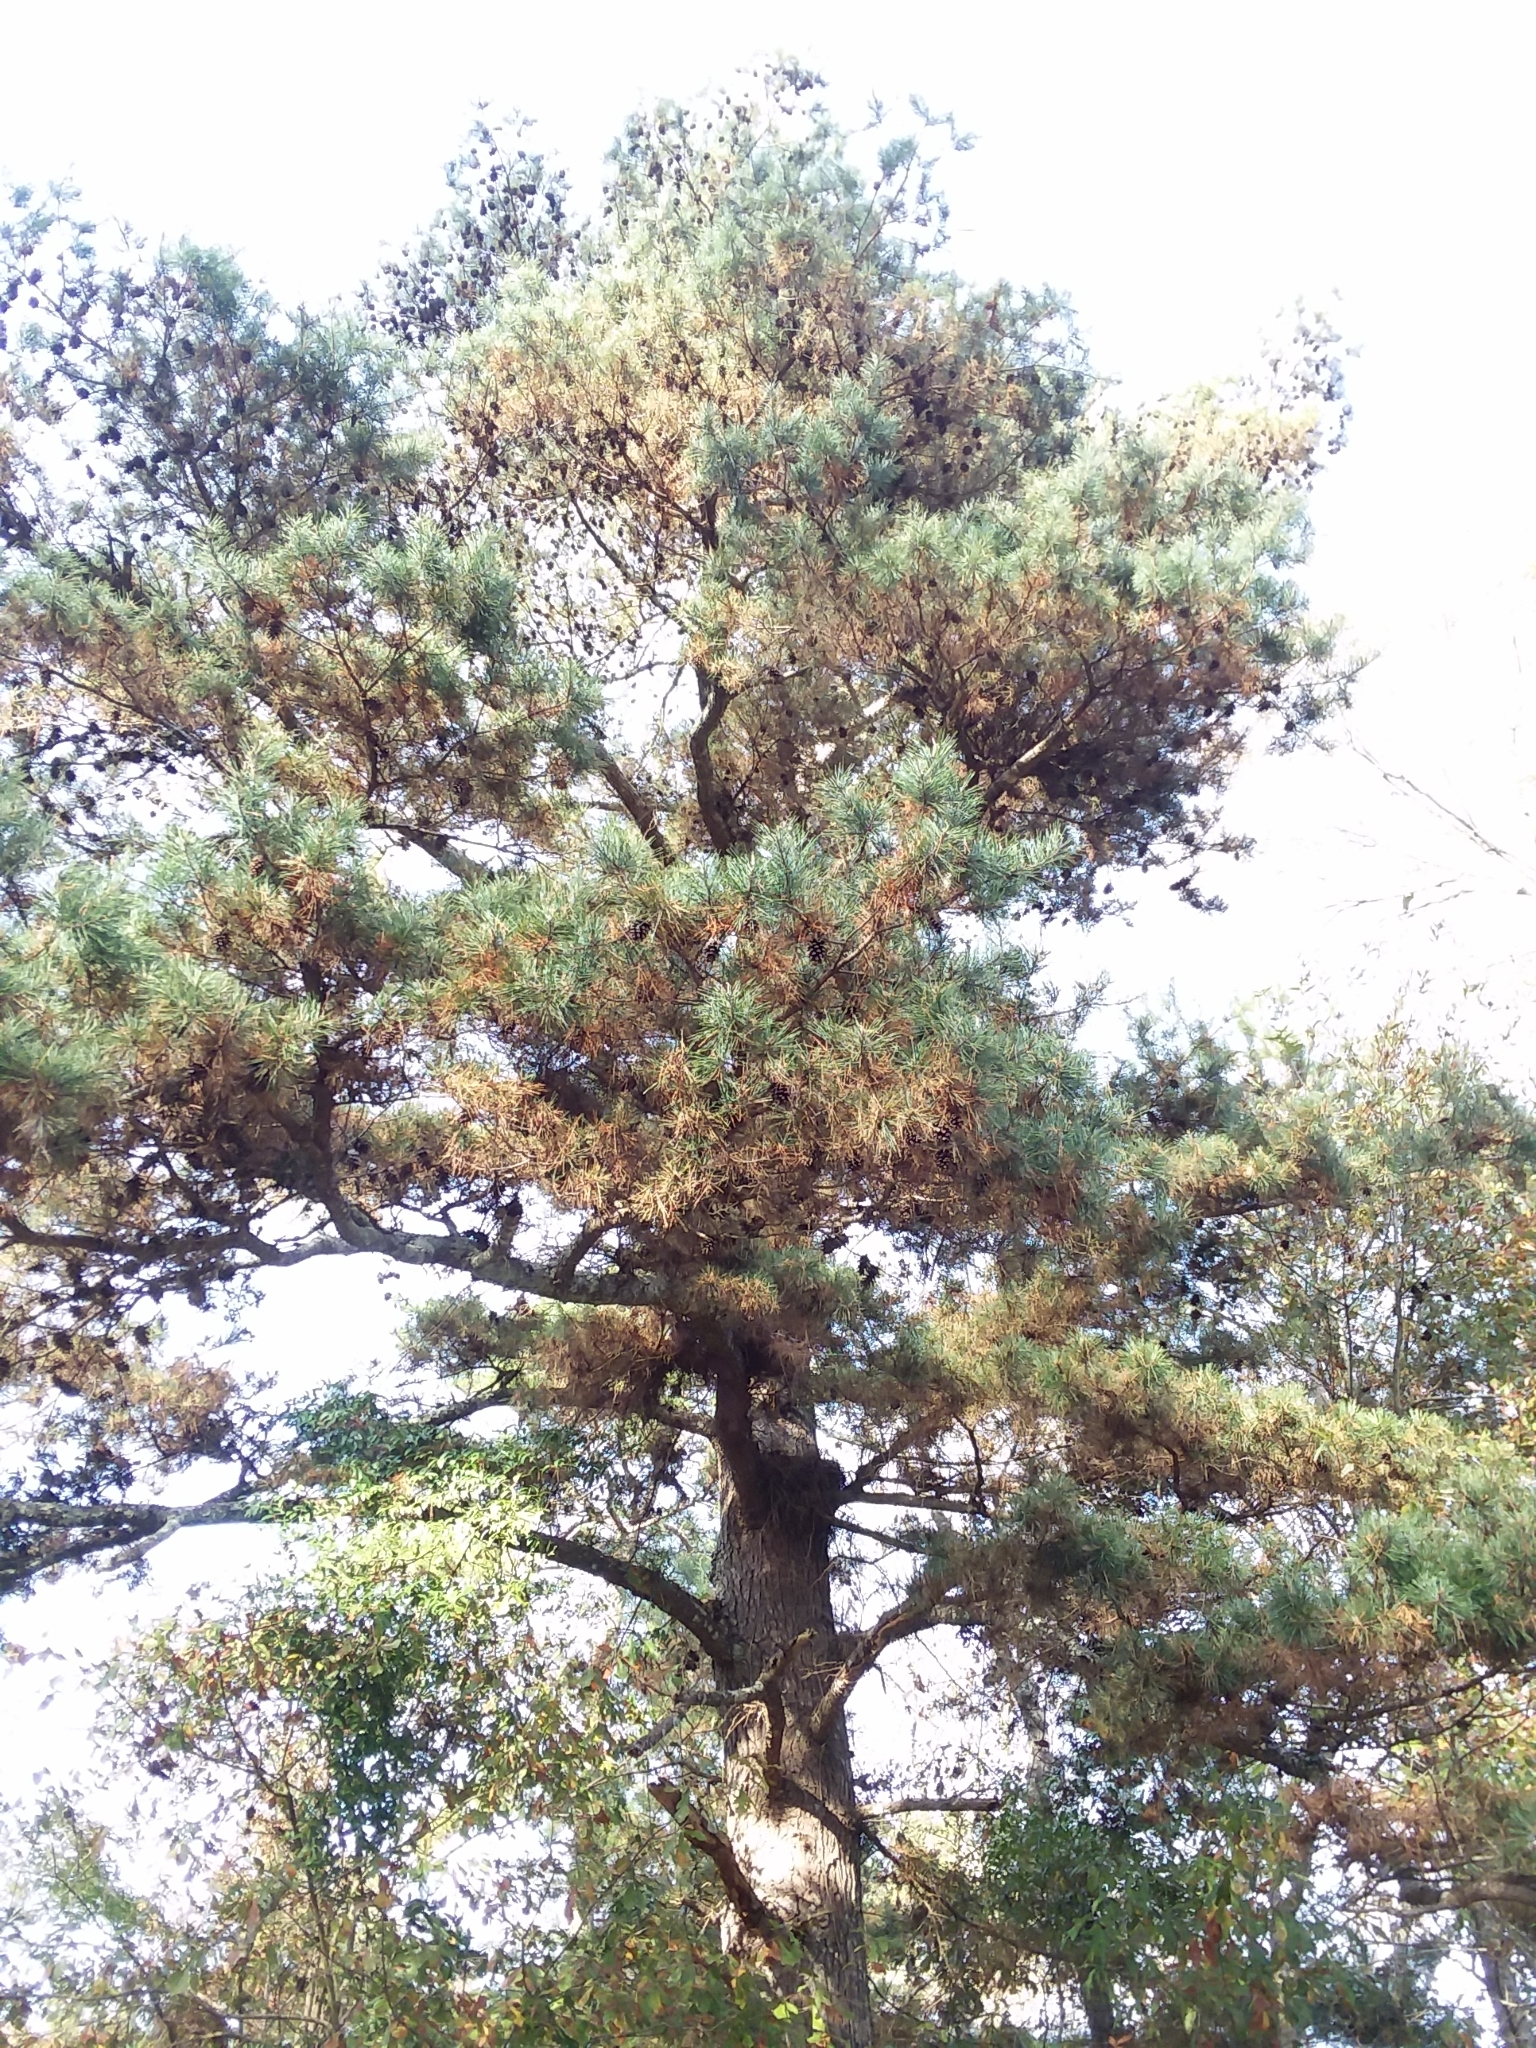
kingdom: Plantae
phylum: Tracheophyta
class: Pinopsida
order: Pinales
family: Pinaceae
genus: Pinus
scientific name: Pinus glabra
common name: Spruce pine
